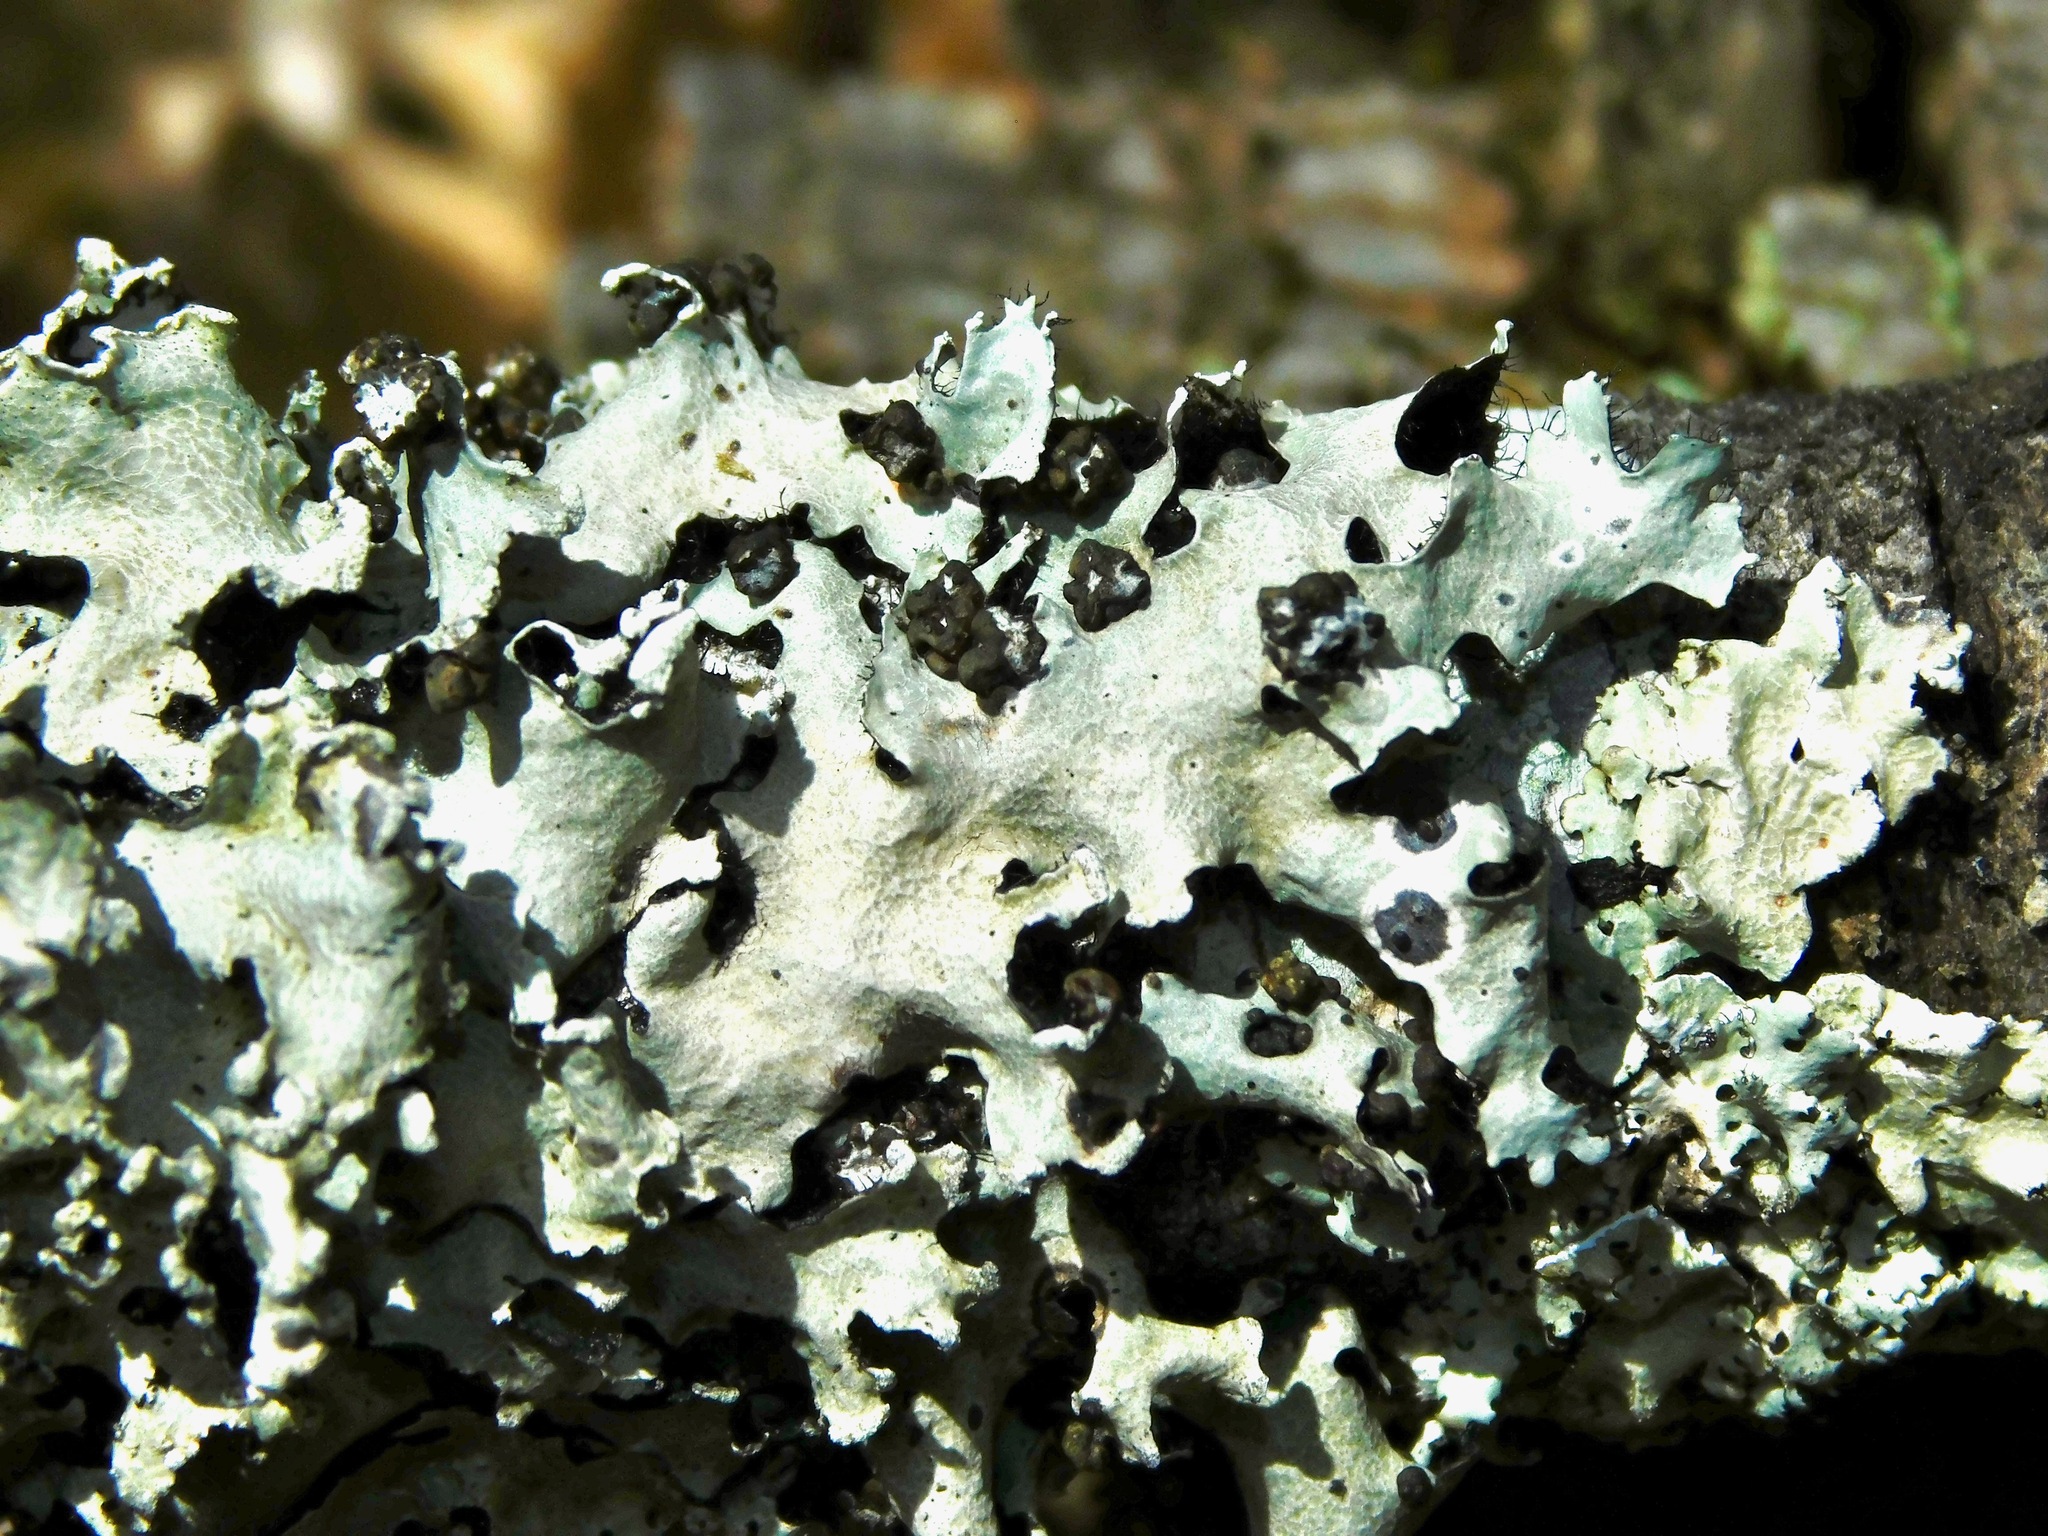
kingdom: Fungi
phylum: Basidiomycota
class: Tremellomycetes
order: Tremellales
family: Tremellaceae
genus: Tremella
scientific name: Tremella parmeliarum
